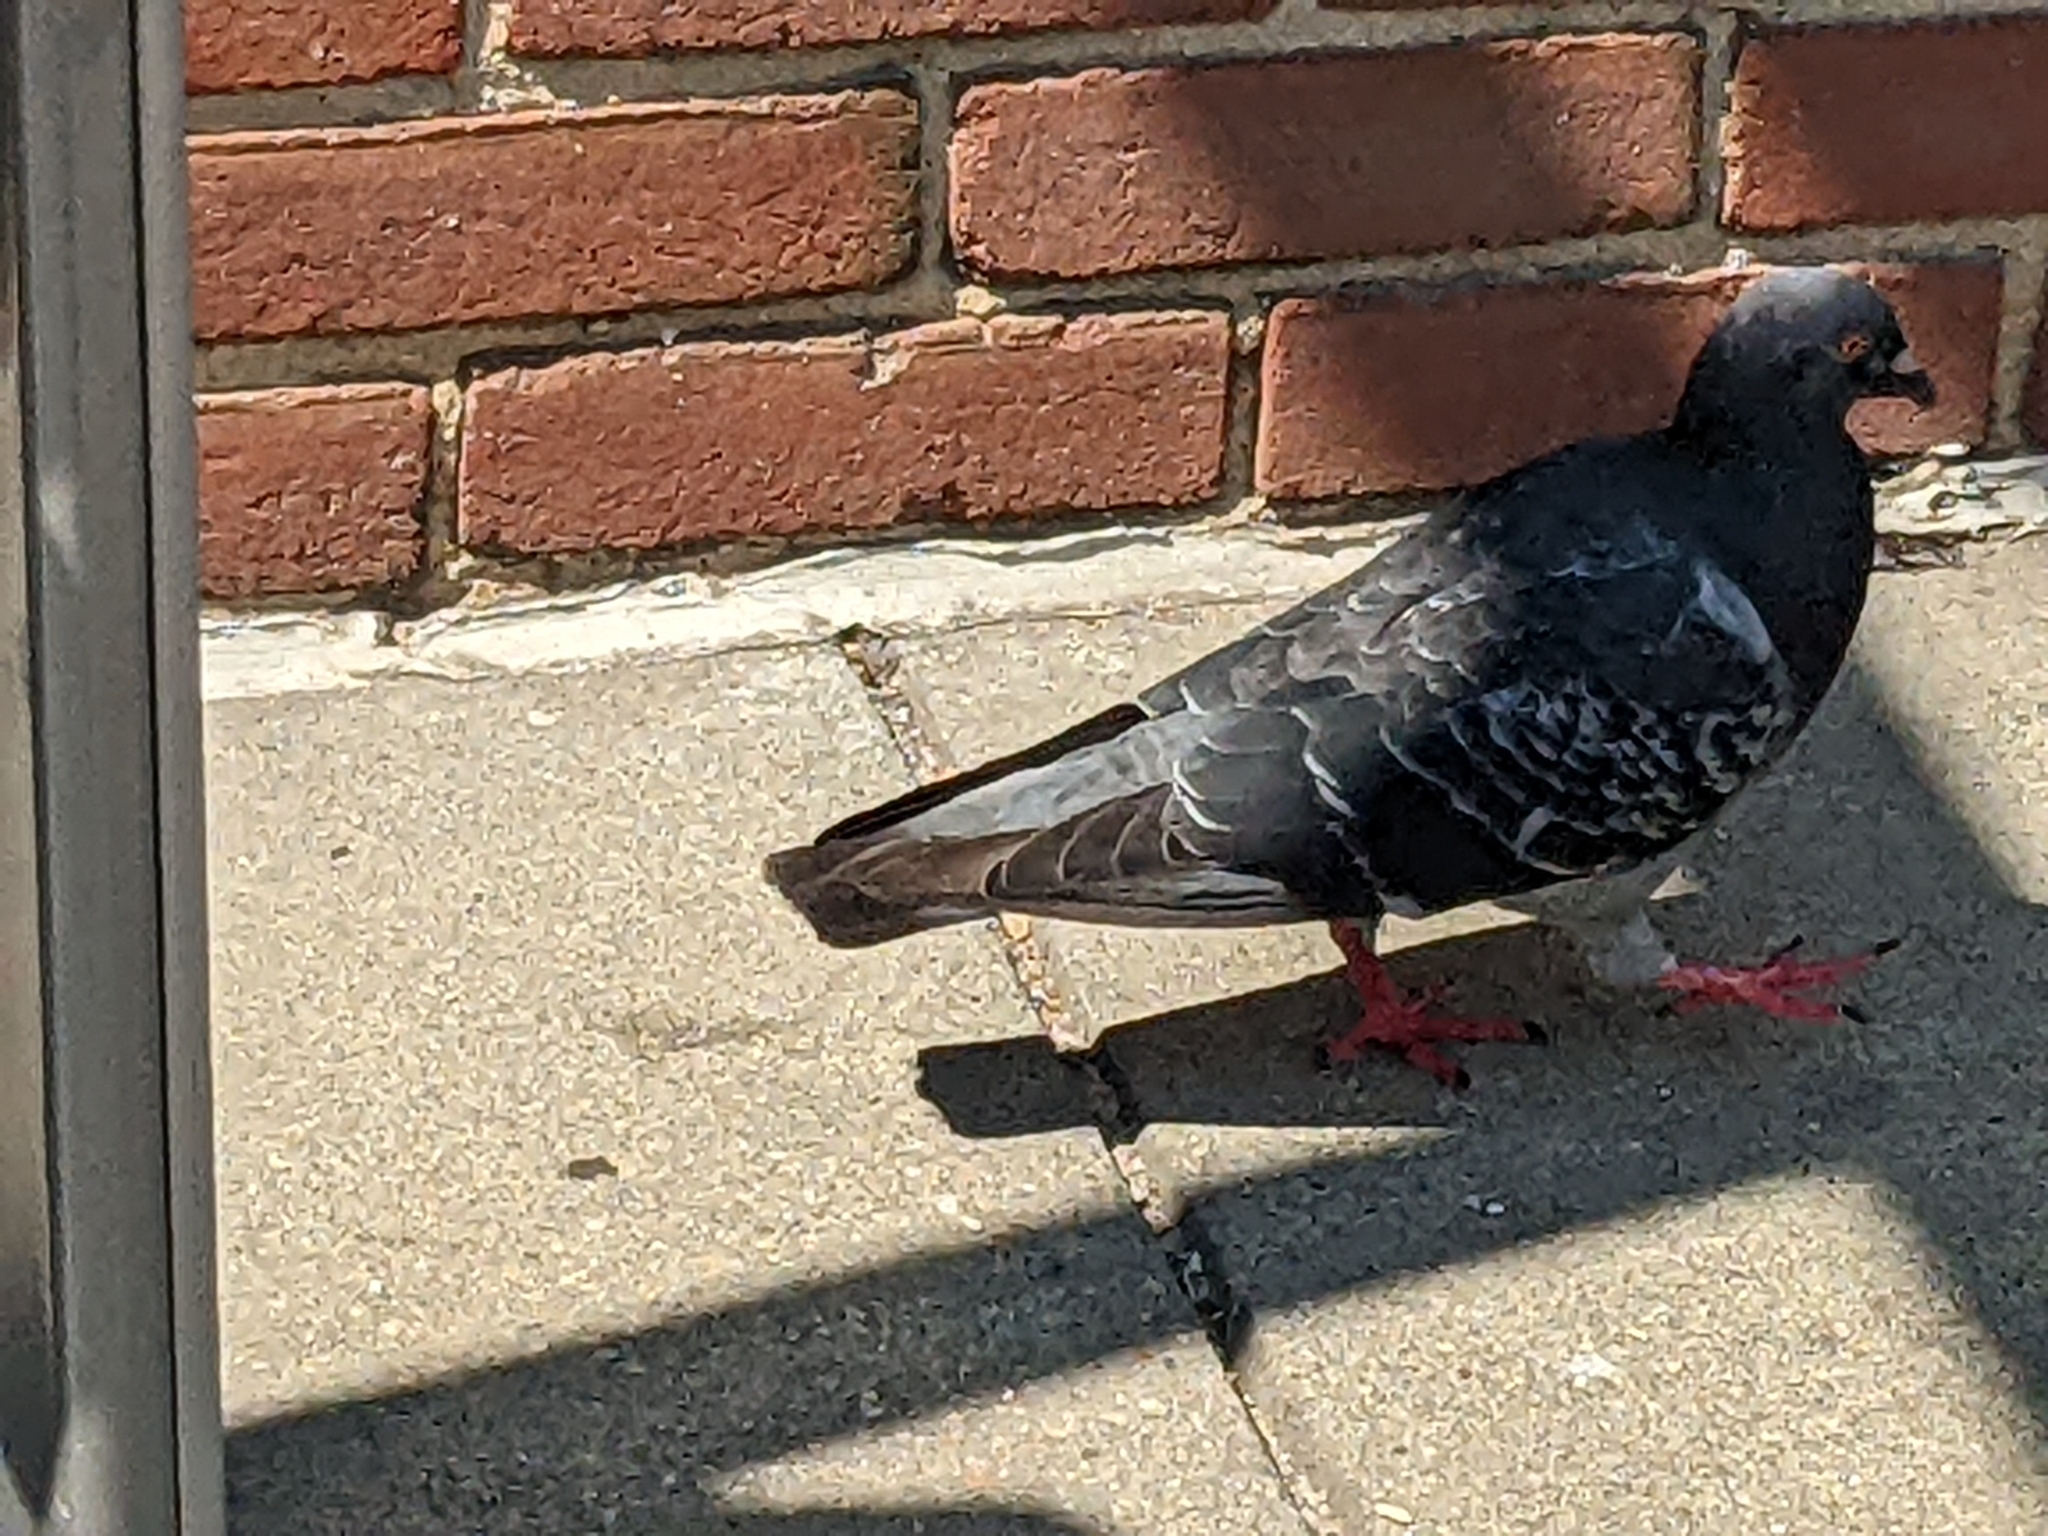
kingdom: Animalia
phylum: Chordata
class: Aves
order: Columbiformes
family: Columbidae
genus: Columba
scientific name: Columba livia
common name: Rock pigeon
